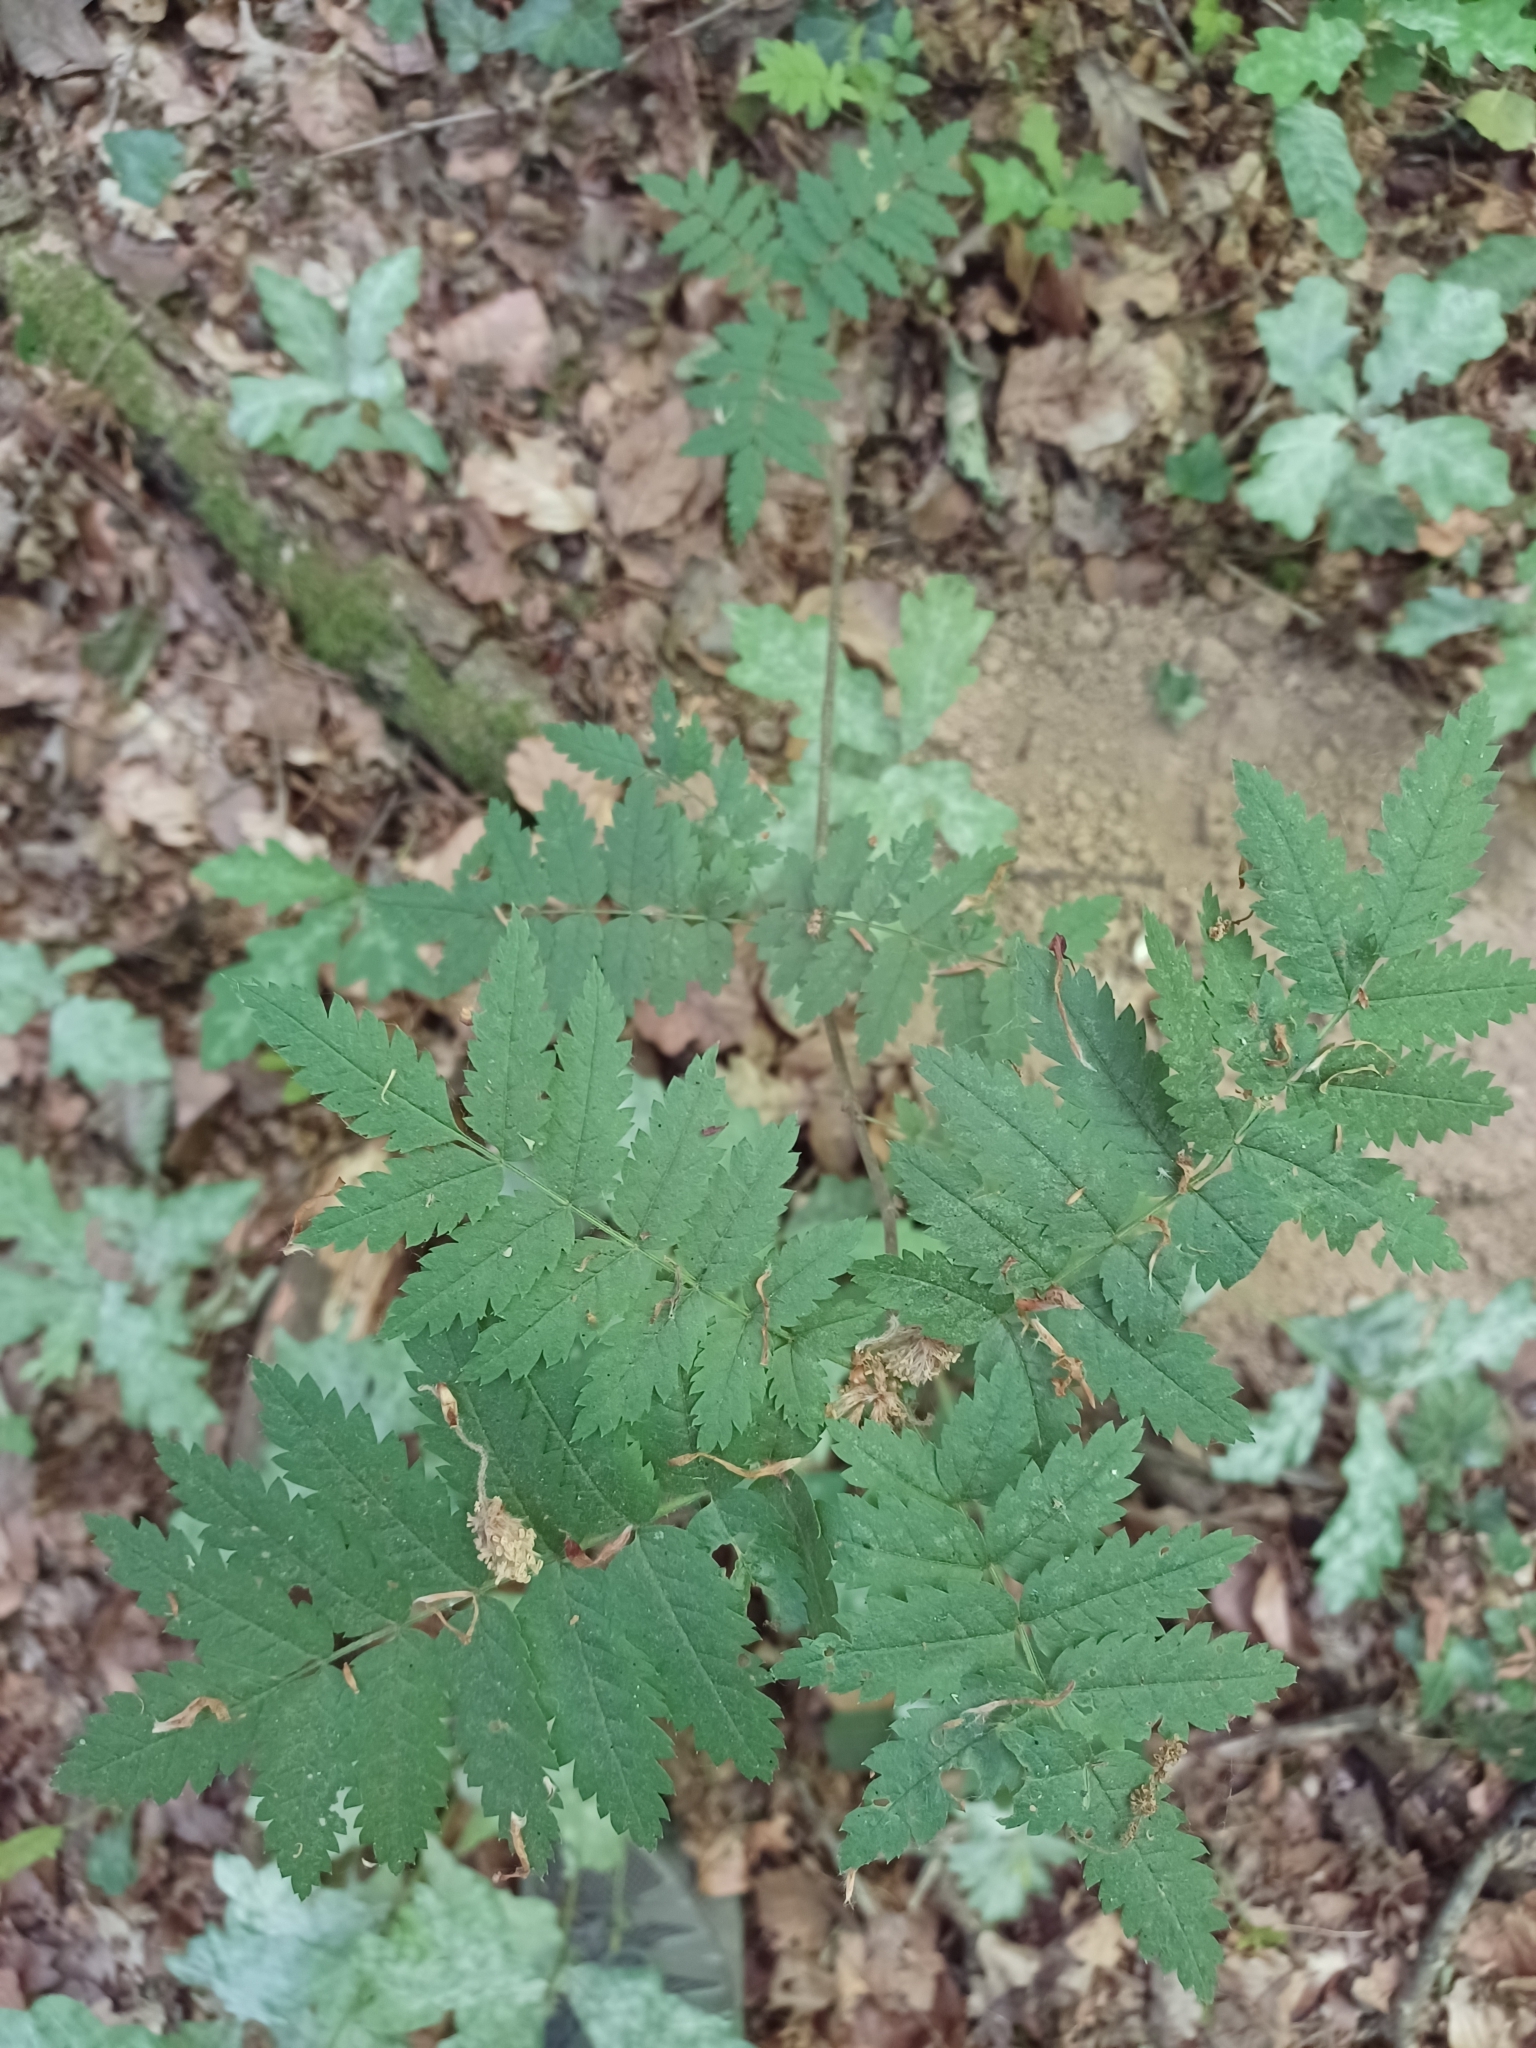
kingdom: Plantae
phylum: Tracheophyta
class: Magnoliopsida
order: Rosales
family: Rosaceae
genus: Sorbus
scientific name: Sorbus aucuparia
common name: Rowan
